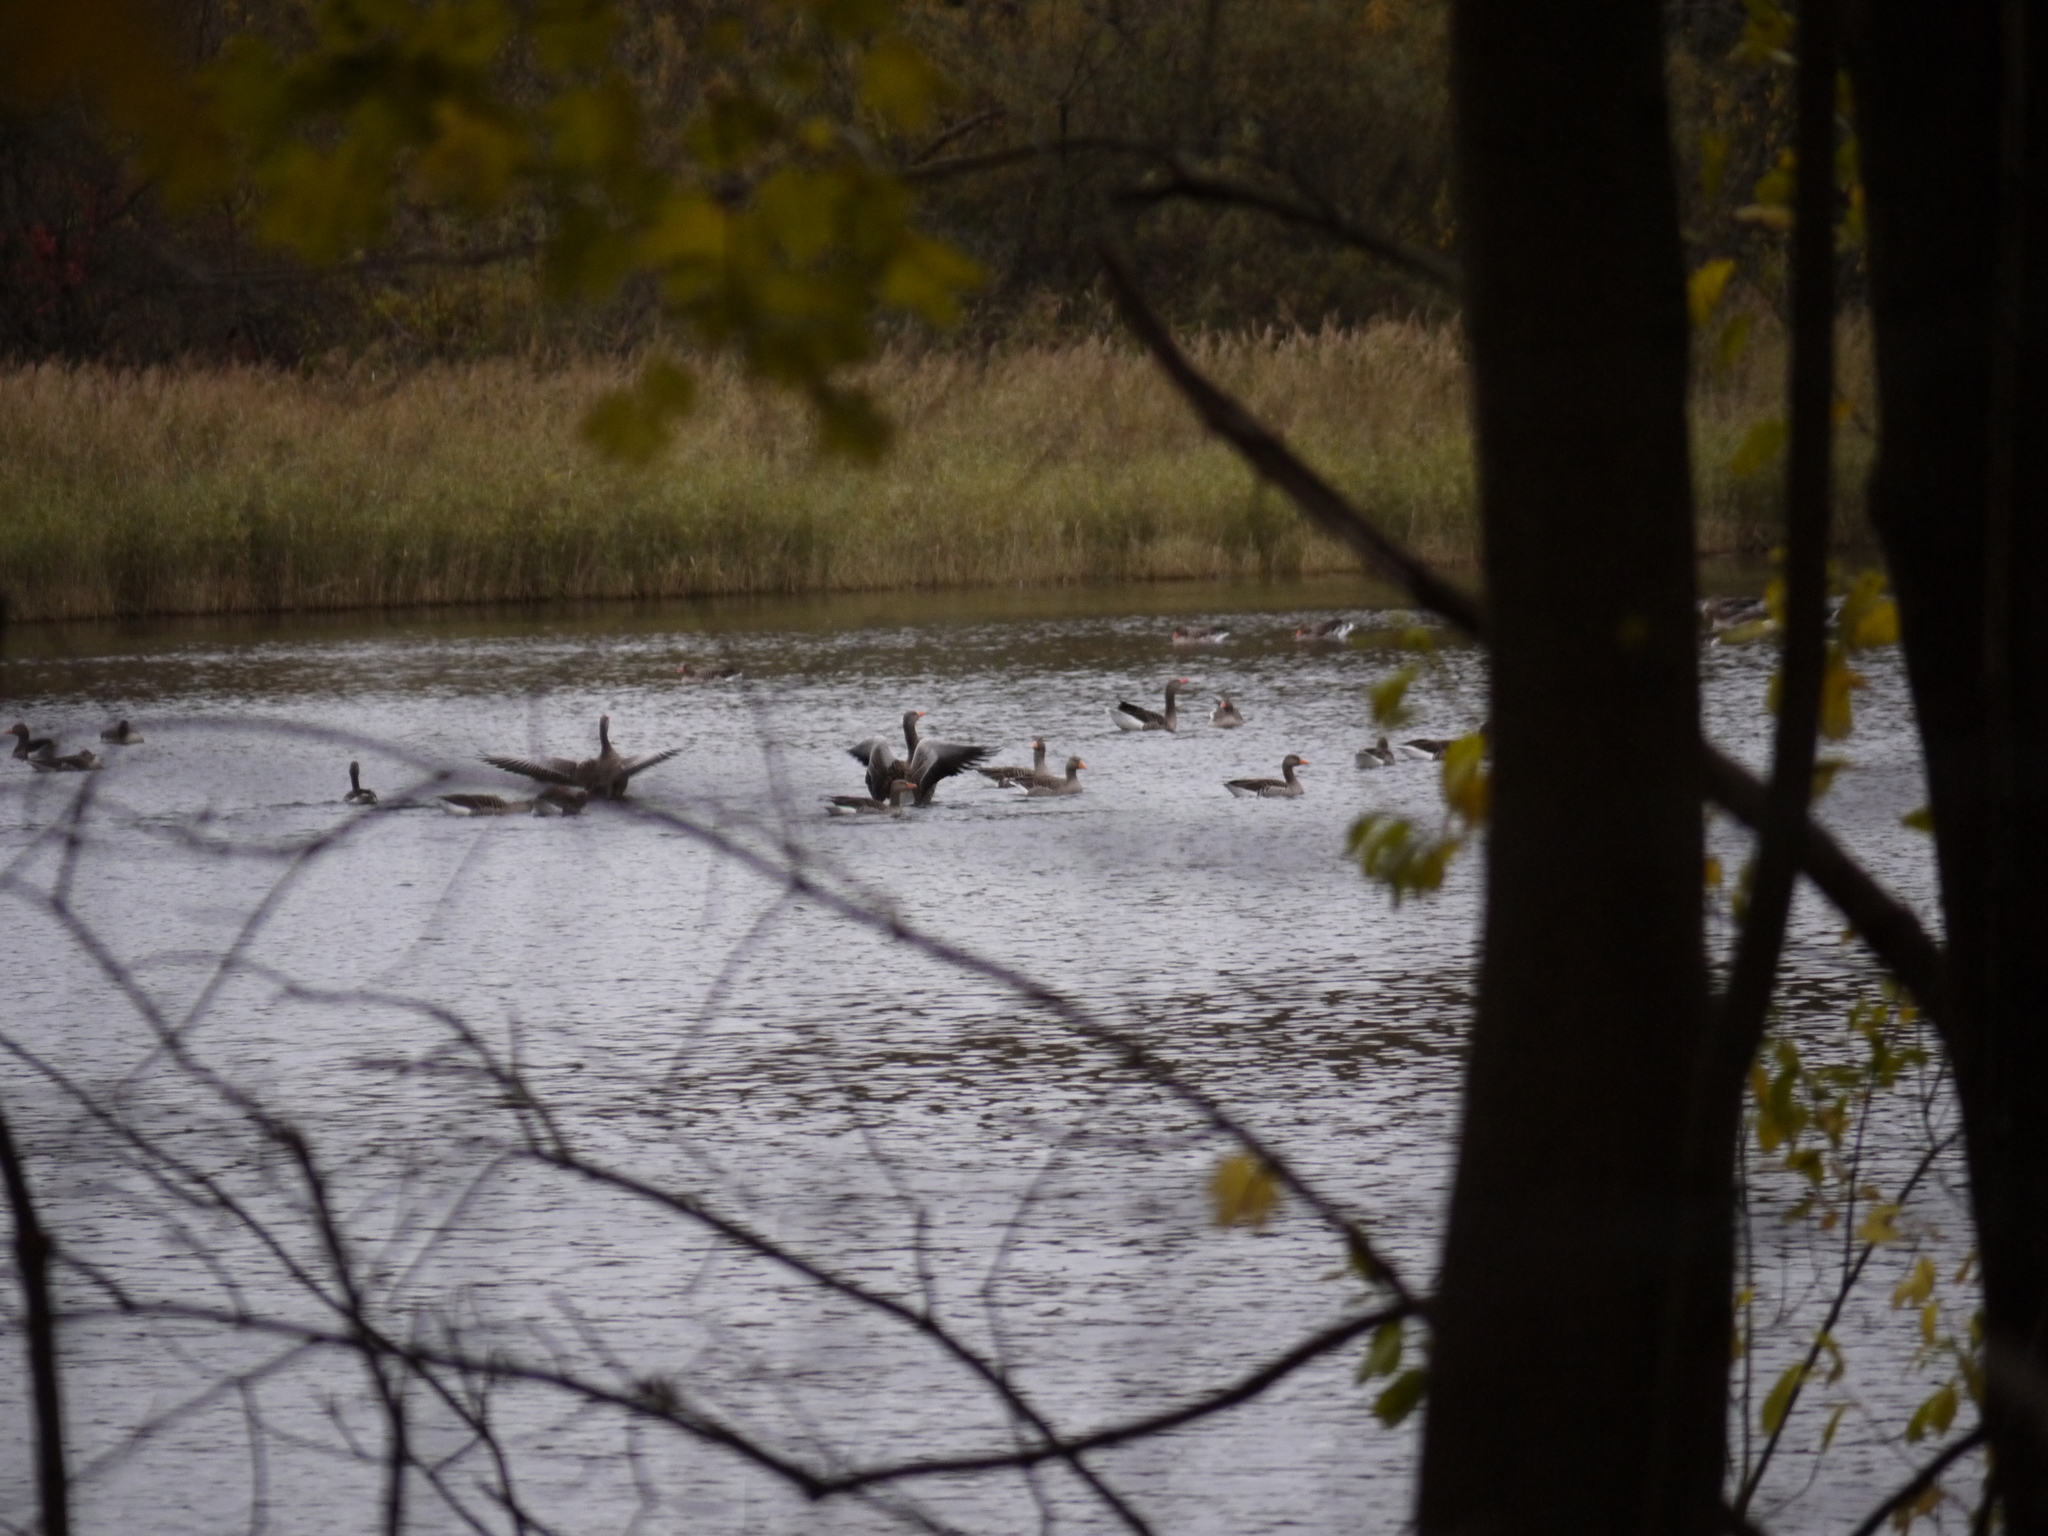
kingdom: Animalia
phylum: Chordata
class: Aves
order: Anseriformes
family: Anatidae
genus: Anser
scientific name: Anser anser
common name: Greylag goose
